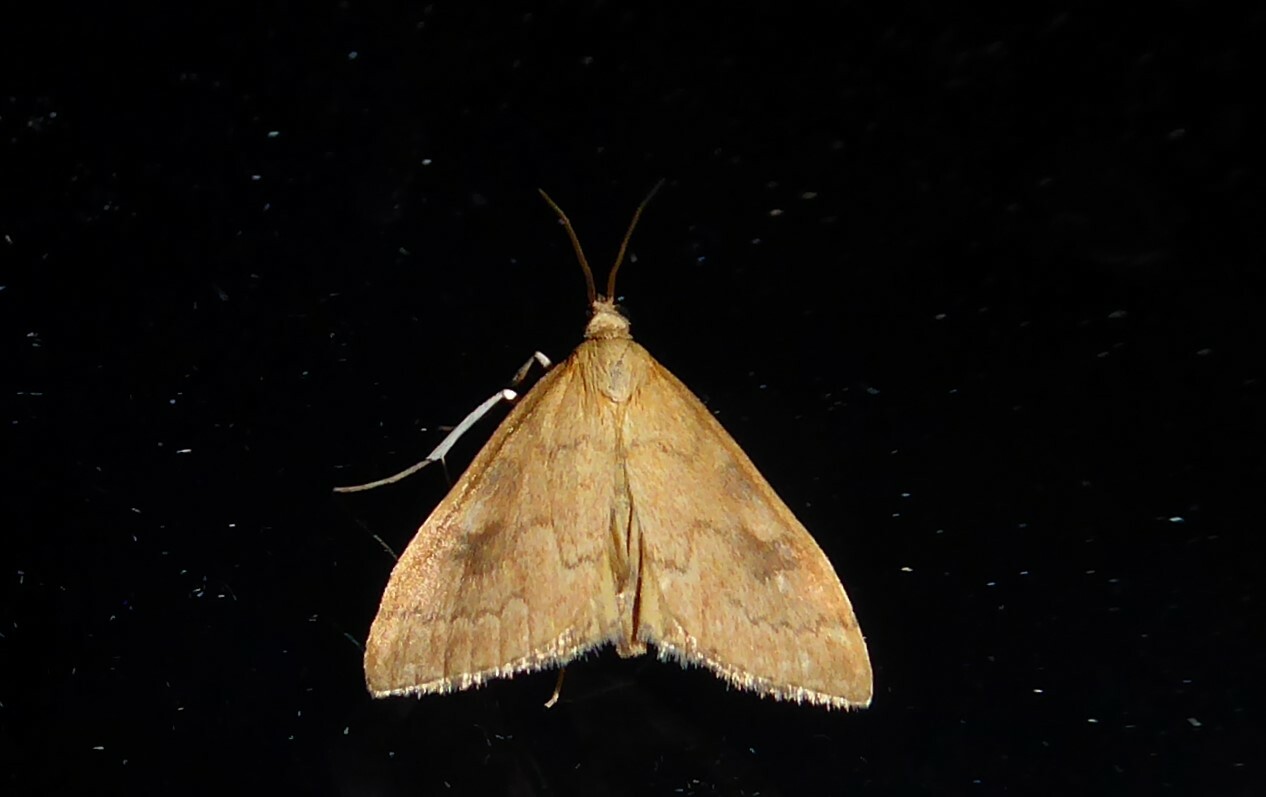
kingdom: Animalia
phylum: Arthropoda
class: Insecta
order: Lepidoptera
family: Crambidae
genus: Udea
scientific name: Udea Mnesictena flavidalis
